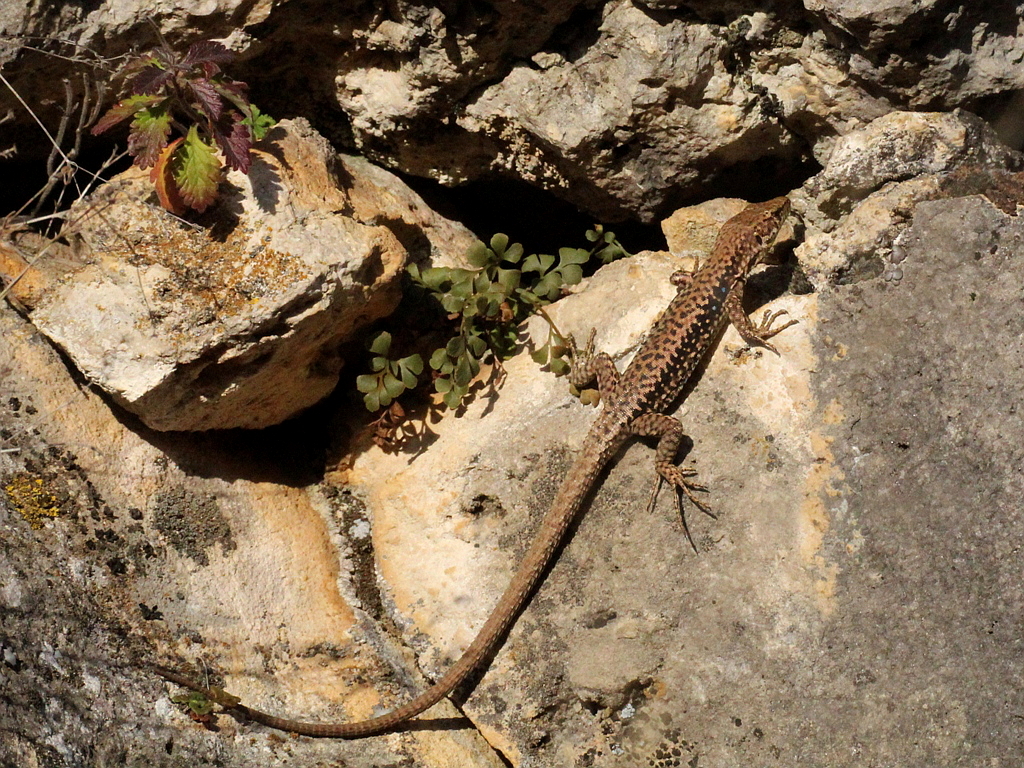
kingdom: Animalia
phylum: Chordata
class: Squamata
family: Lacertidae
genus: Darevskia
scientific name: Darevskia brauneri
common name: Brauner's rock lizard
